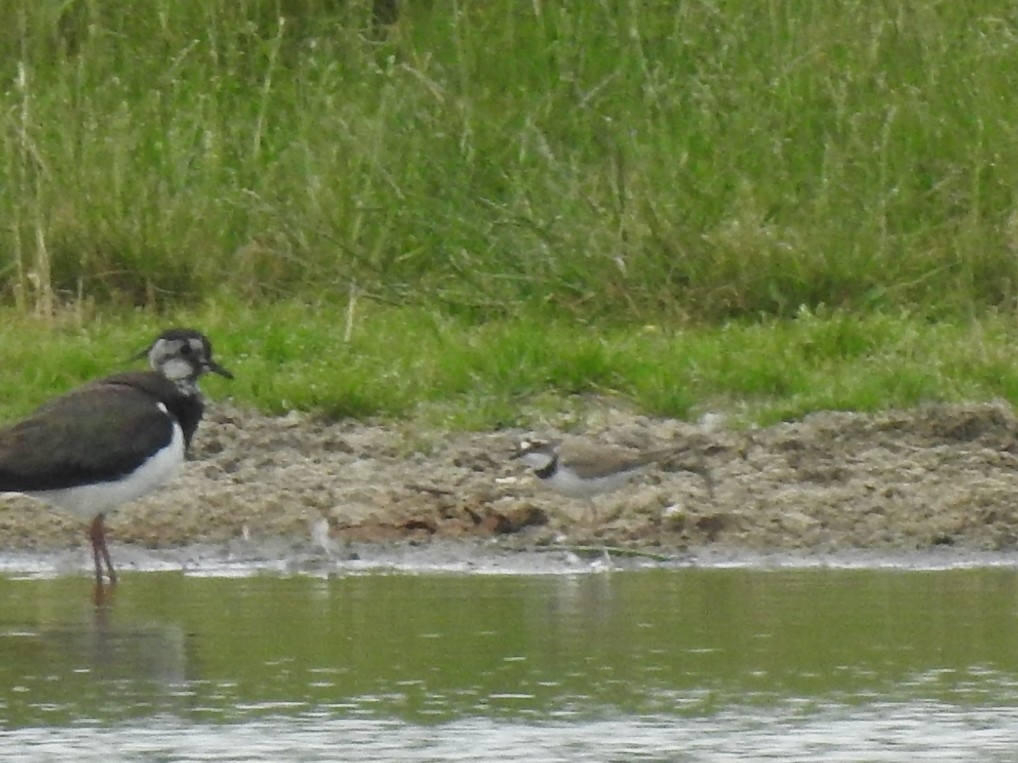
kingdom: Animalia
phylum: Chordata
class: Aves
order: Charadriiformes
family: Charadriidae
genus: Charadrius
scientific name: Charadrius dubius
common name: Little ringed plover
